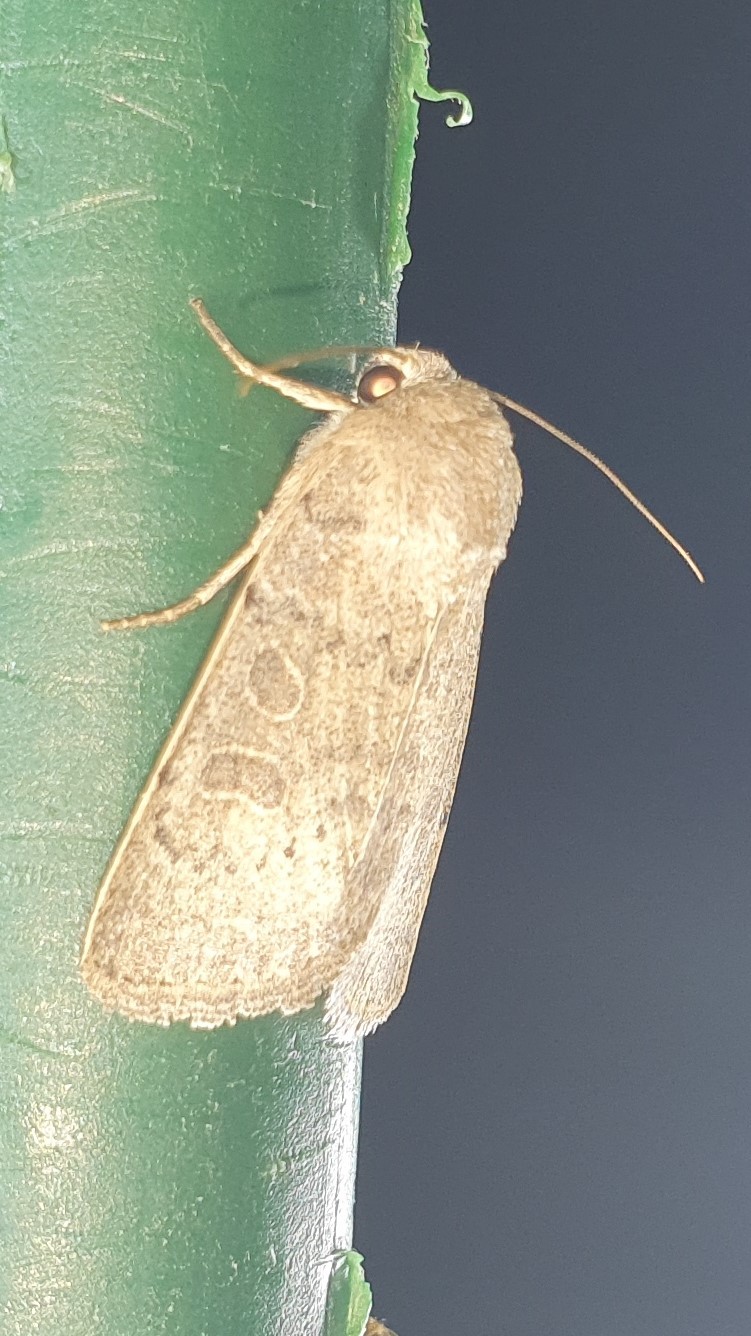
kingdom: Animalia
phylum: Arthropoda
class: Insecta
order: Lepidoptera
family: Noctuidae
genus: Hoplodrina
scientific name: Hoplodrina ambigua
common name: Vine's rustic
